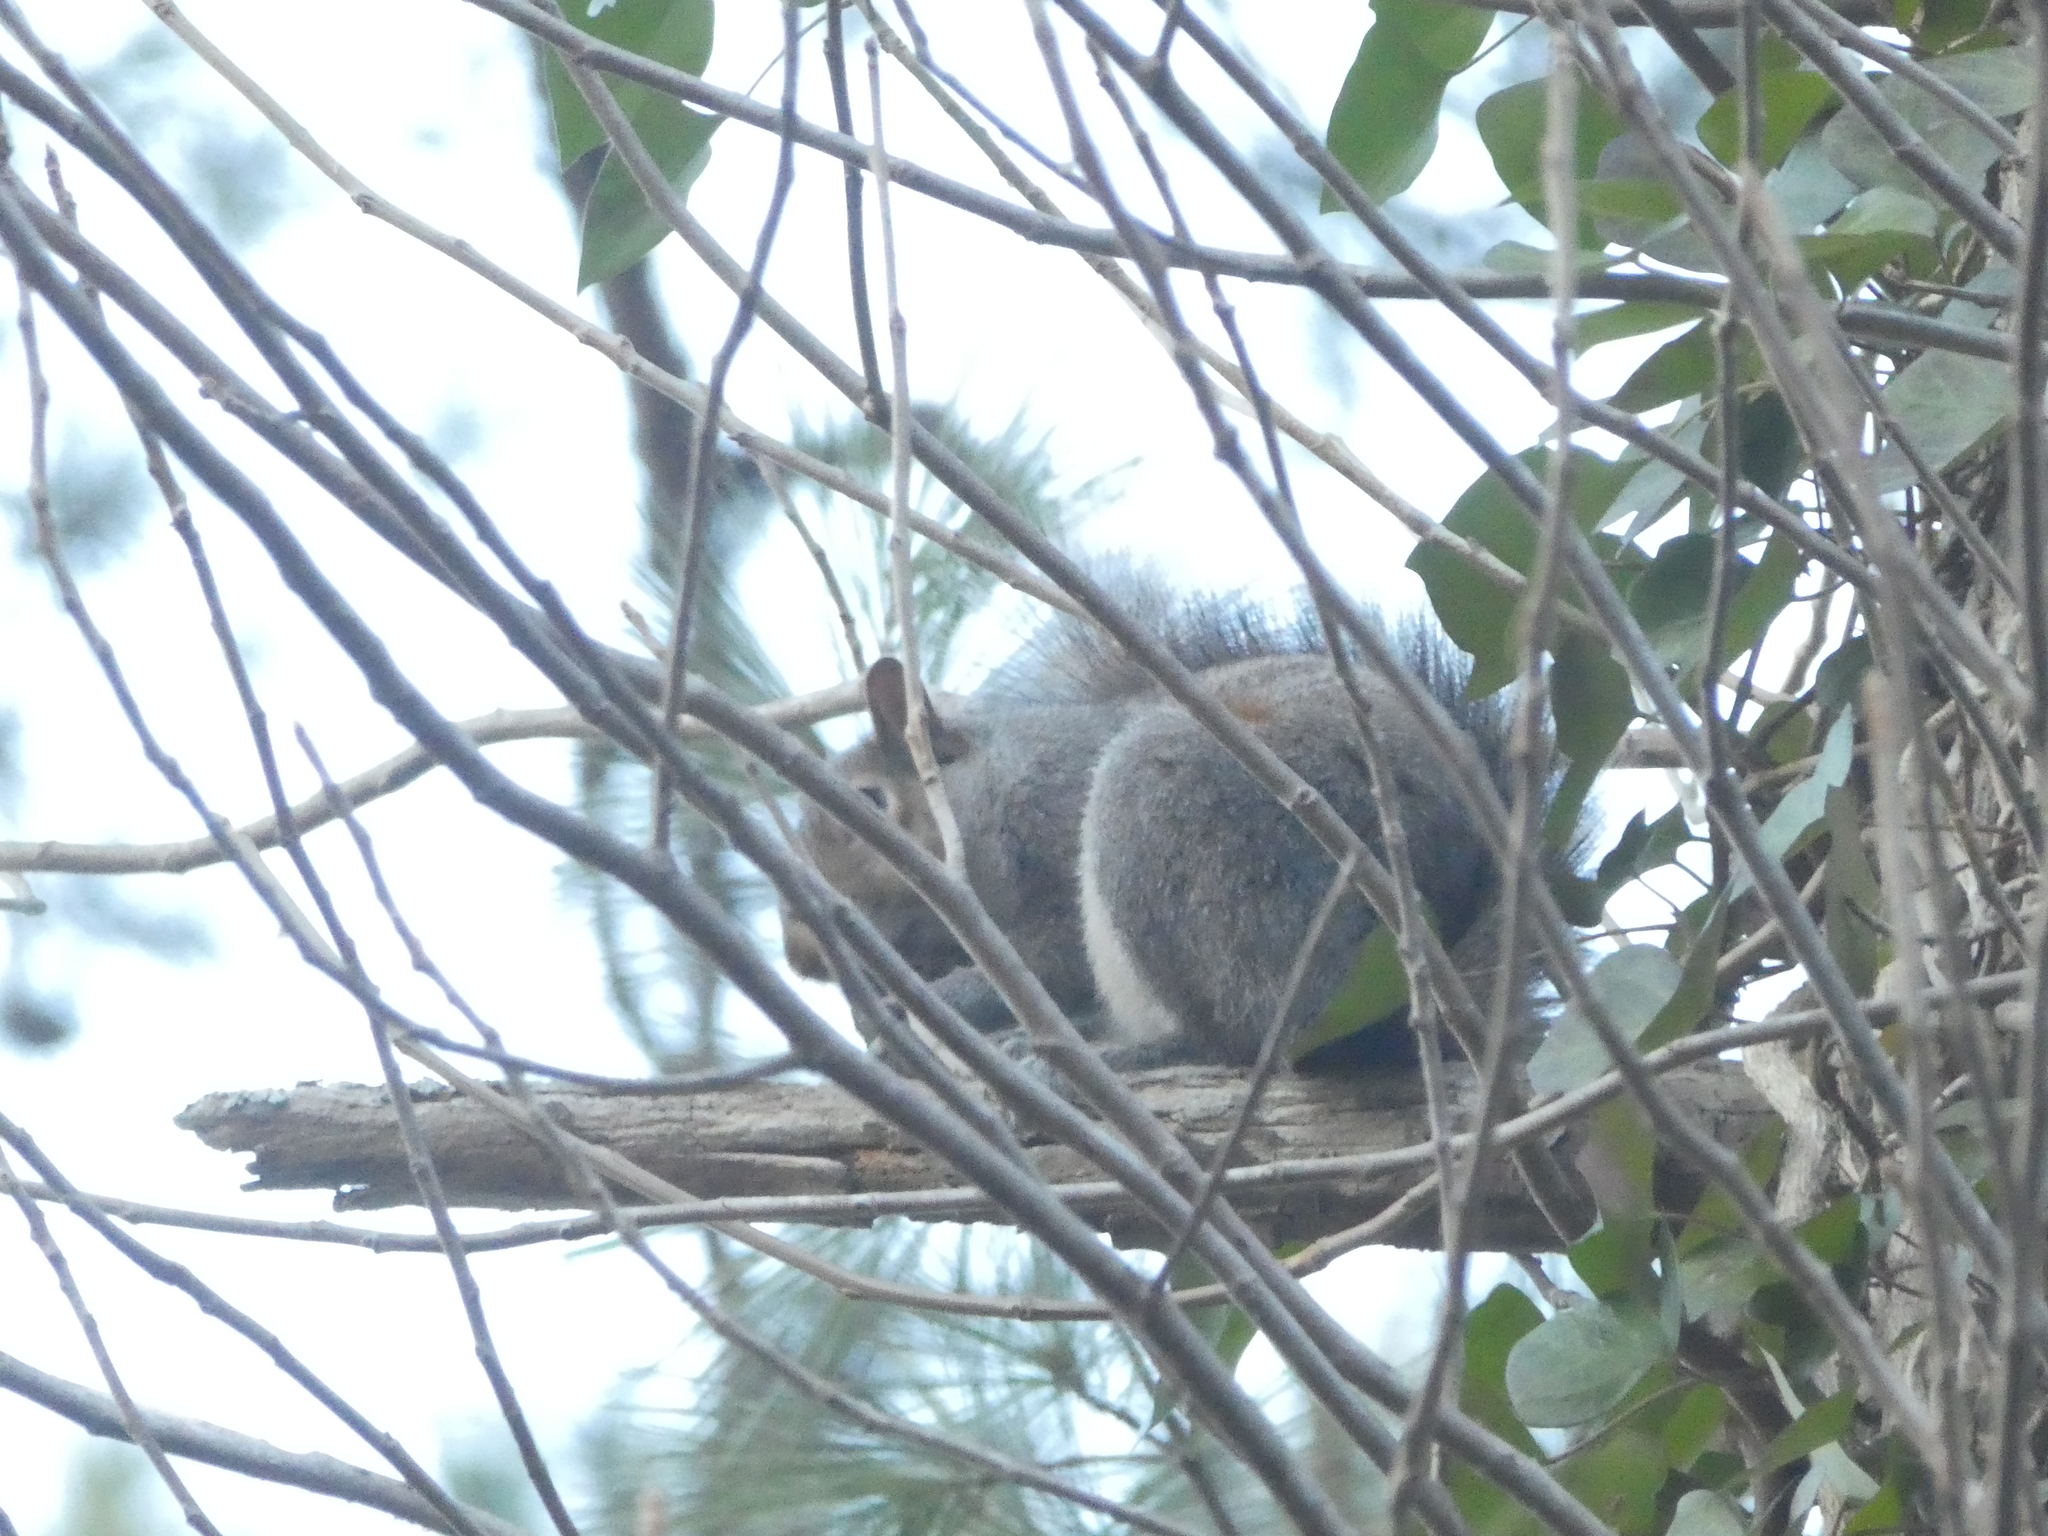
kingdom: Animalia
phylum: Chordata
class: Mammalia
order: Rodentia
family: Sciuridae
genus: Sciurus
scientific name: Sciurus carolinensis
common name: Eastern gray squirrel
